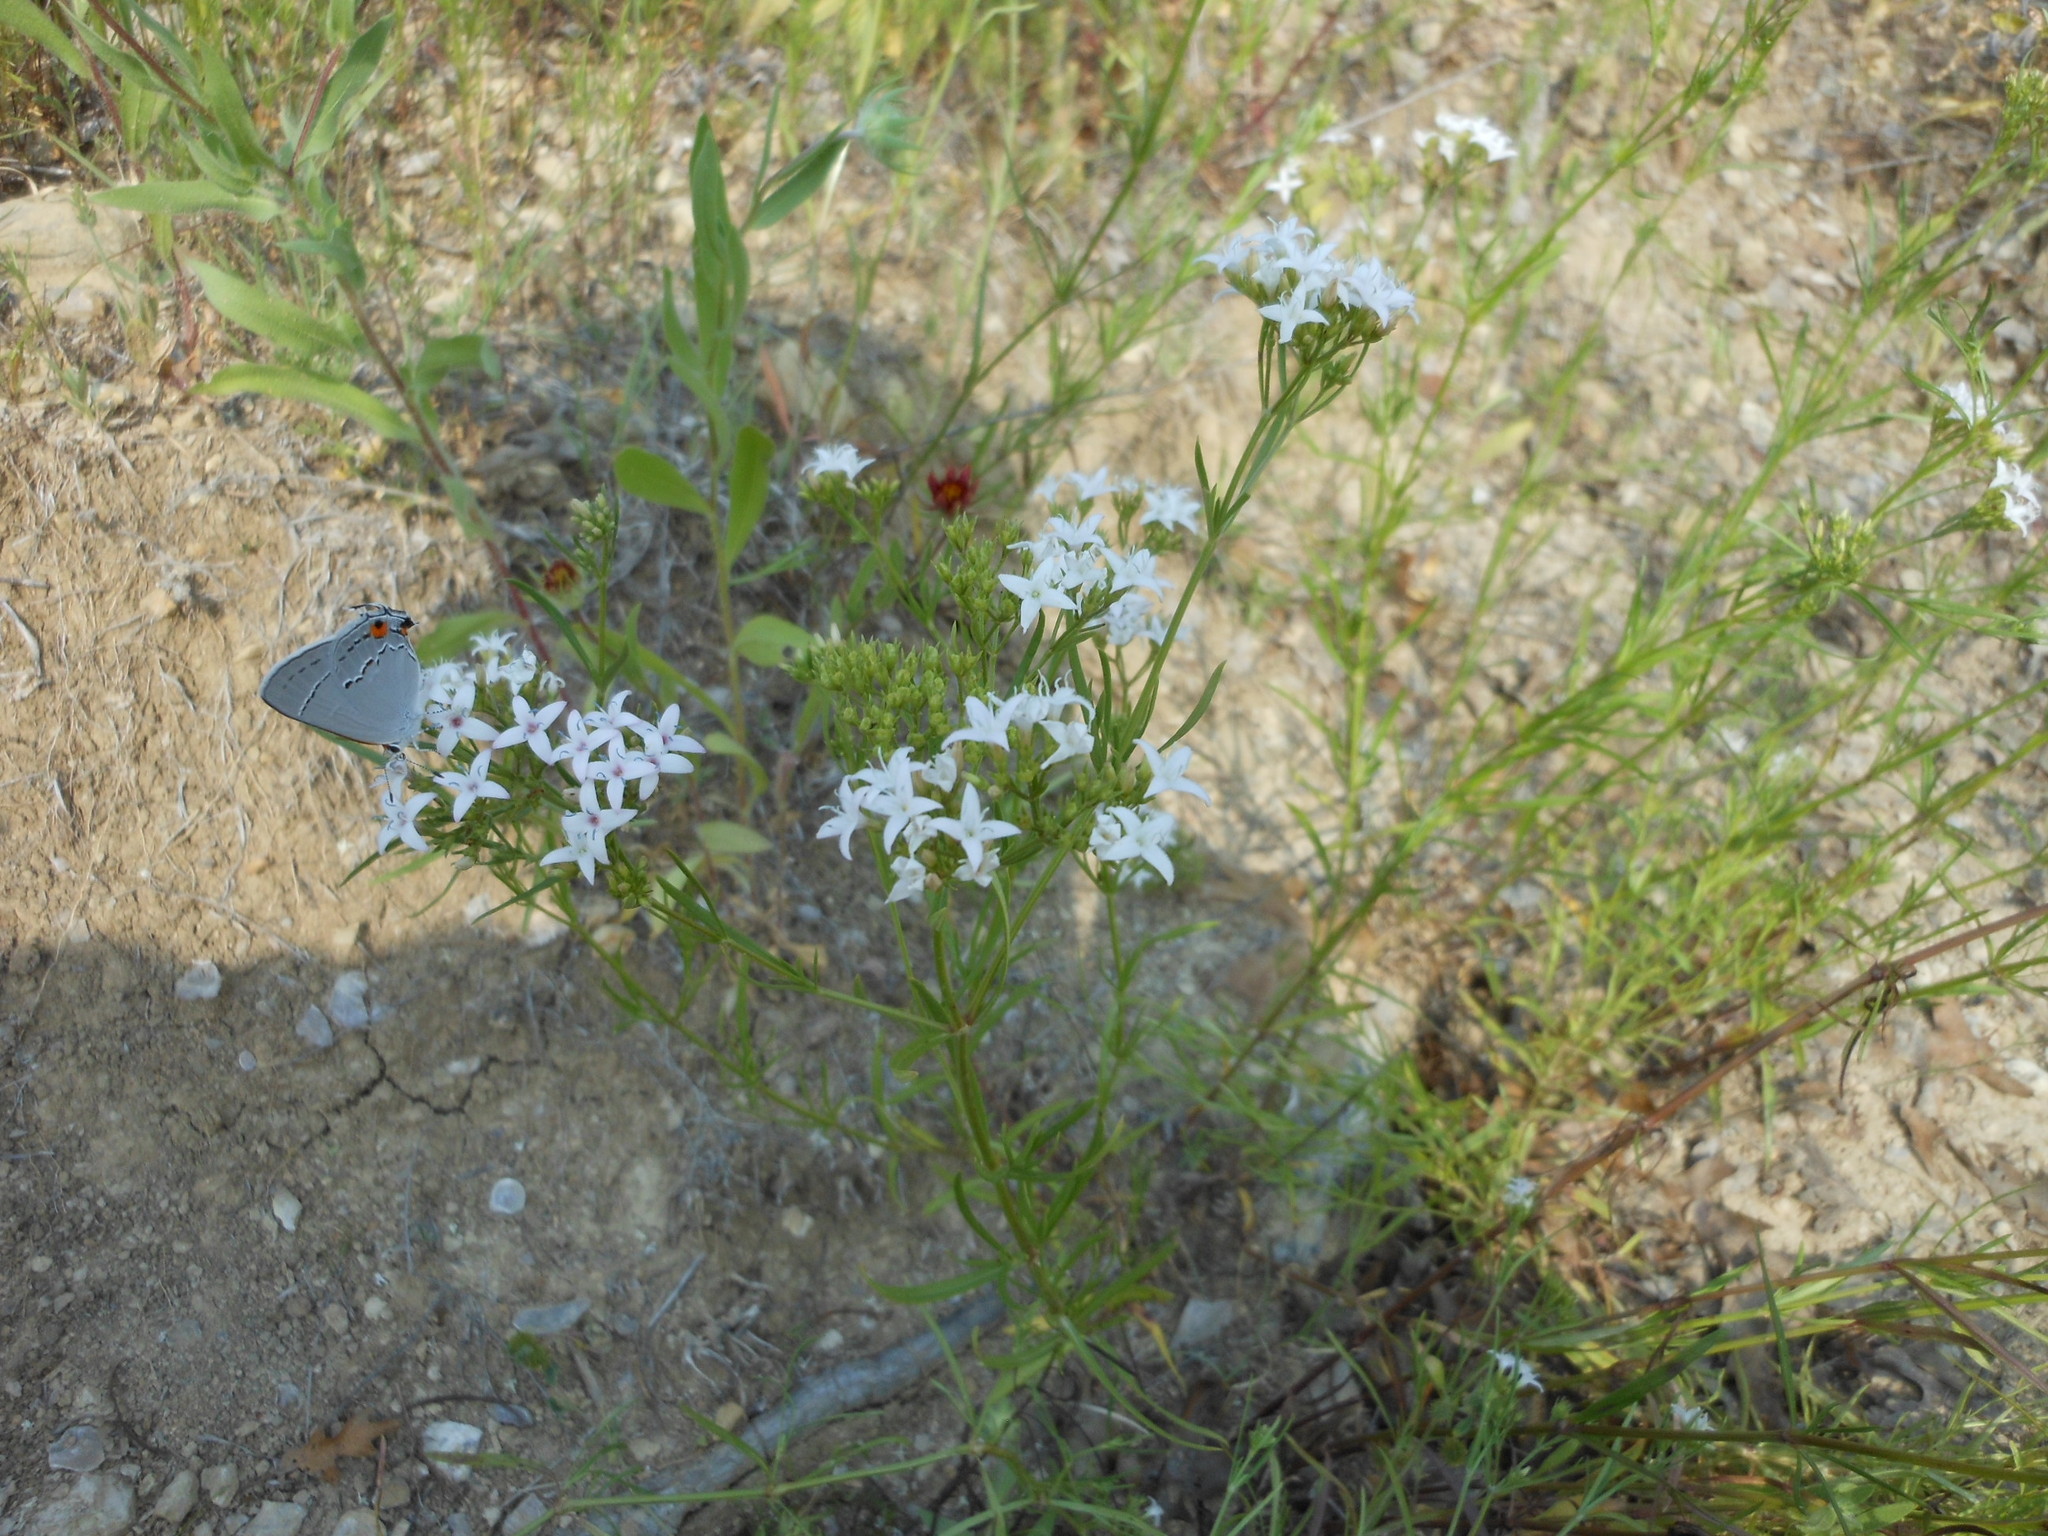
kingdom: Plantae
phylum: Tracheophyta
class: Magnoliopsida
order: Gentianales
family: Rubiaceae
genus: Stenaria
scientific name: Stenaria nigricans
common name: Diamondflowers
